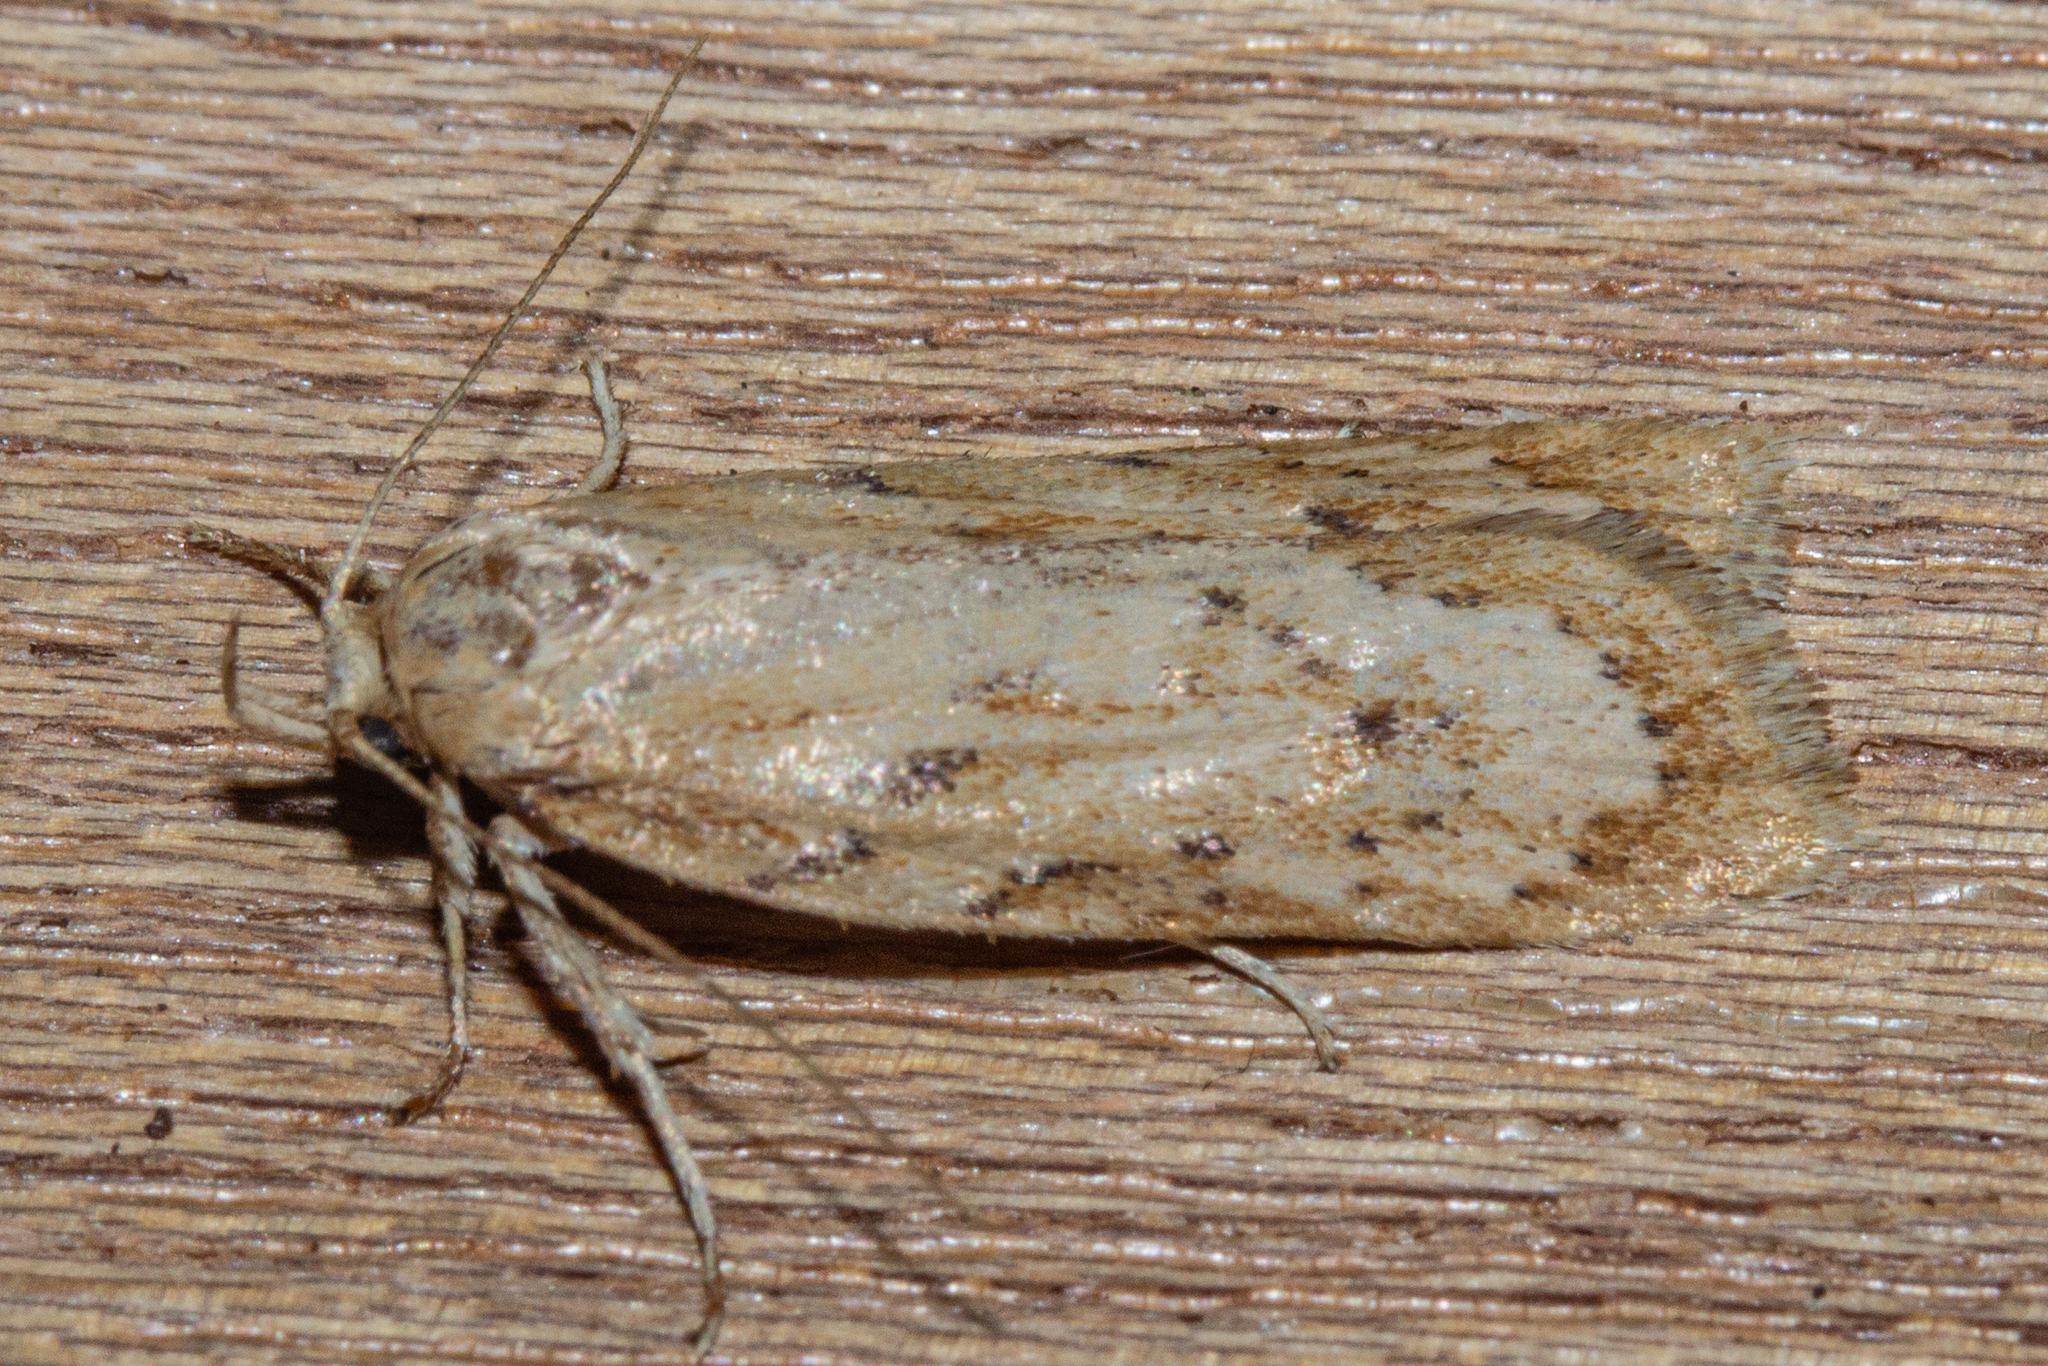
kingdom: Animalia
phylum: Arthropoda
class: Insecta
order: Lepidoptera
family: Depressariidae
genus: Agriophara
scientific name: Agriophara
